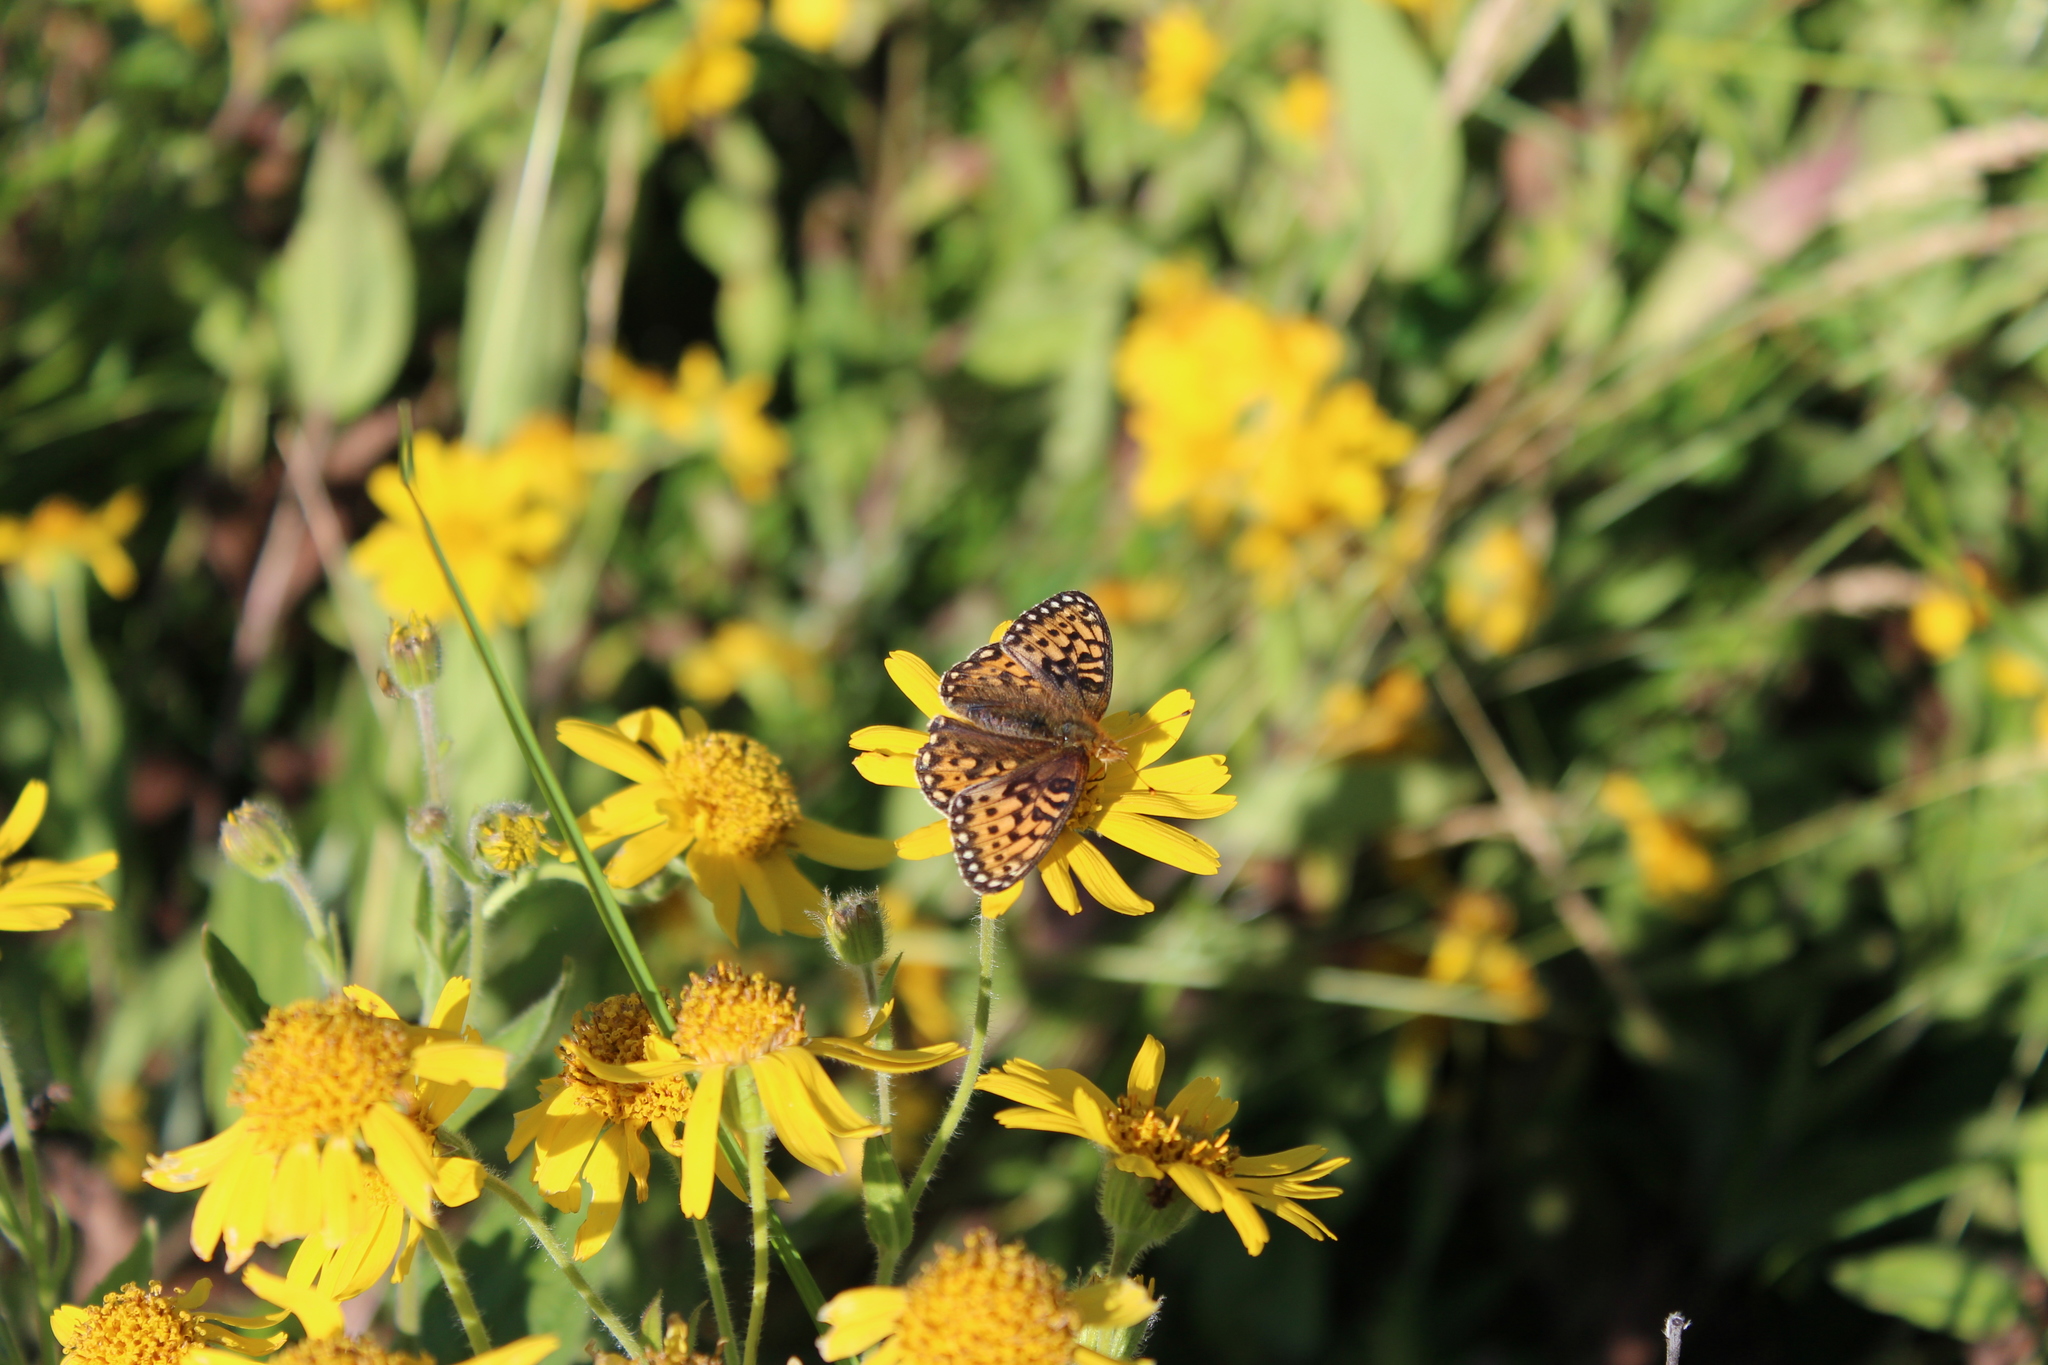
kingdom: Animalia
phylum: Arthropoda
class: Insecta
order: Lepidoptera
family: Nymphalidae
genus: Speyeria
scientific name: Speyeria mormonia
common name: Mormon fritillary
